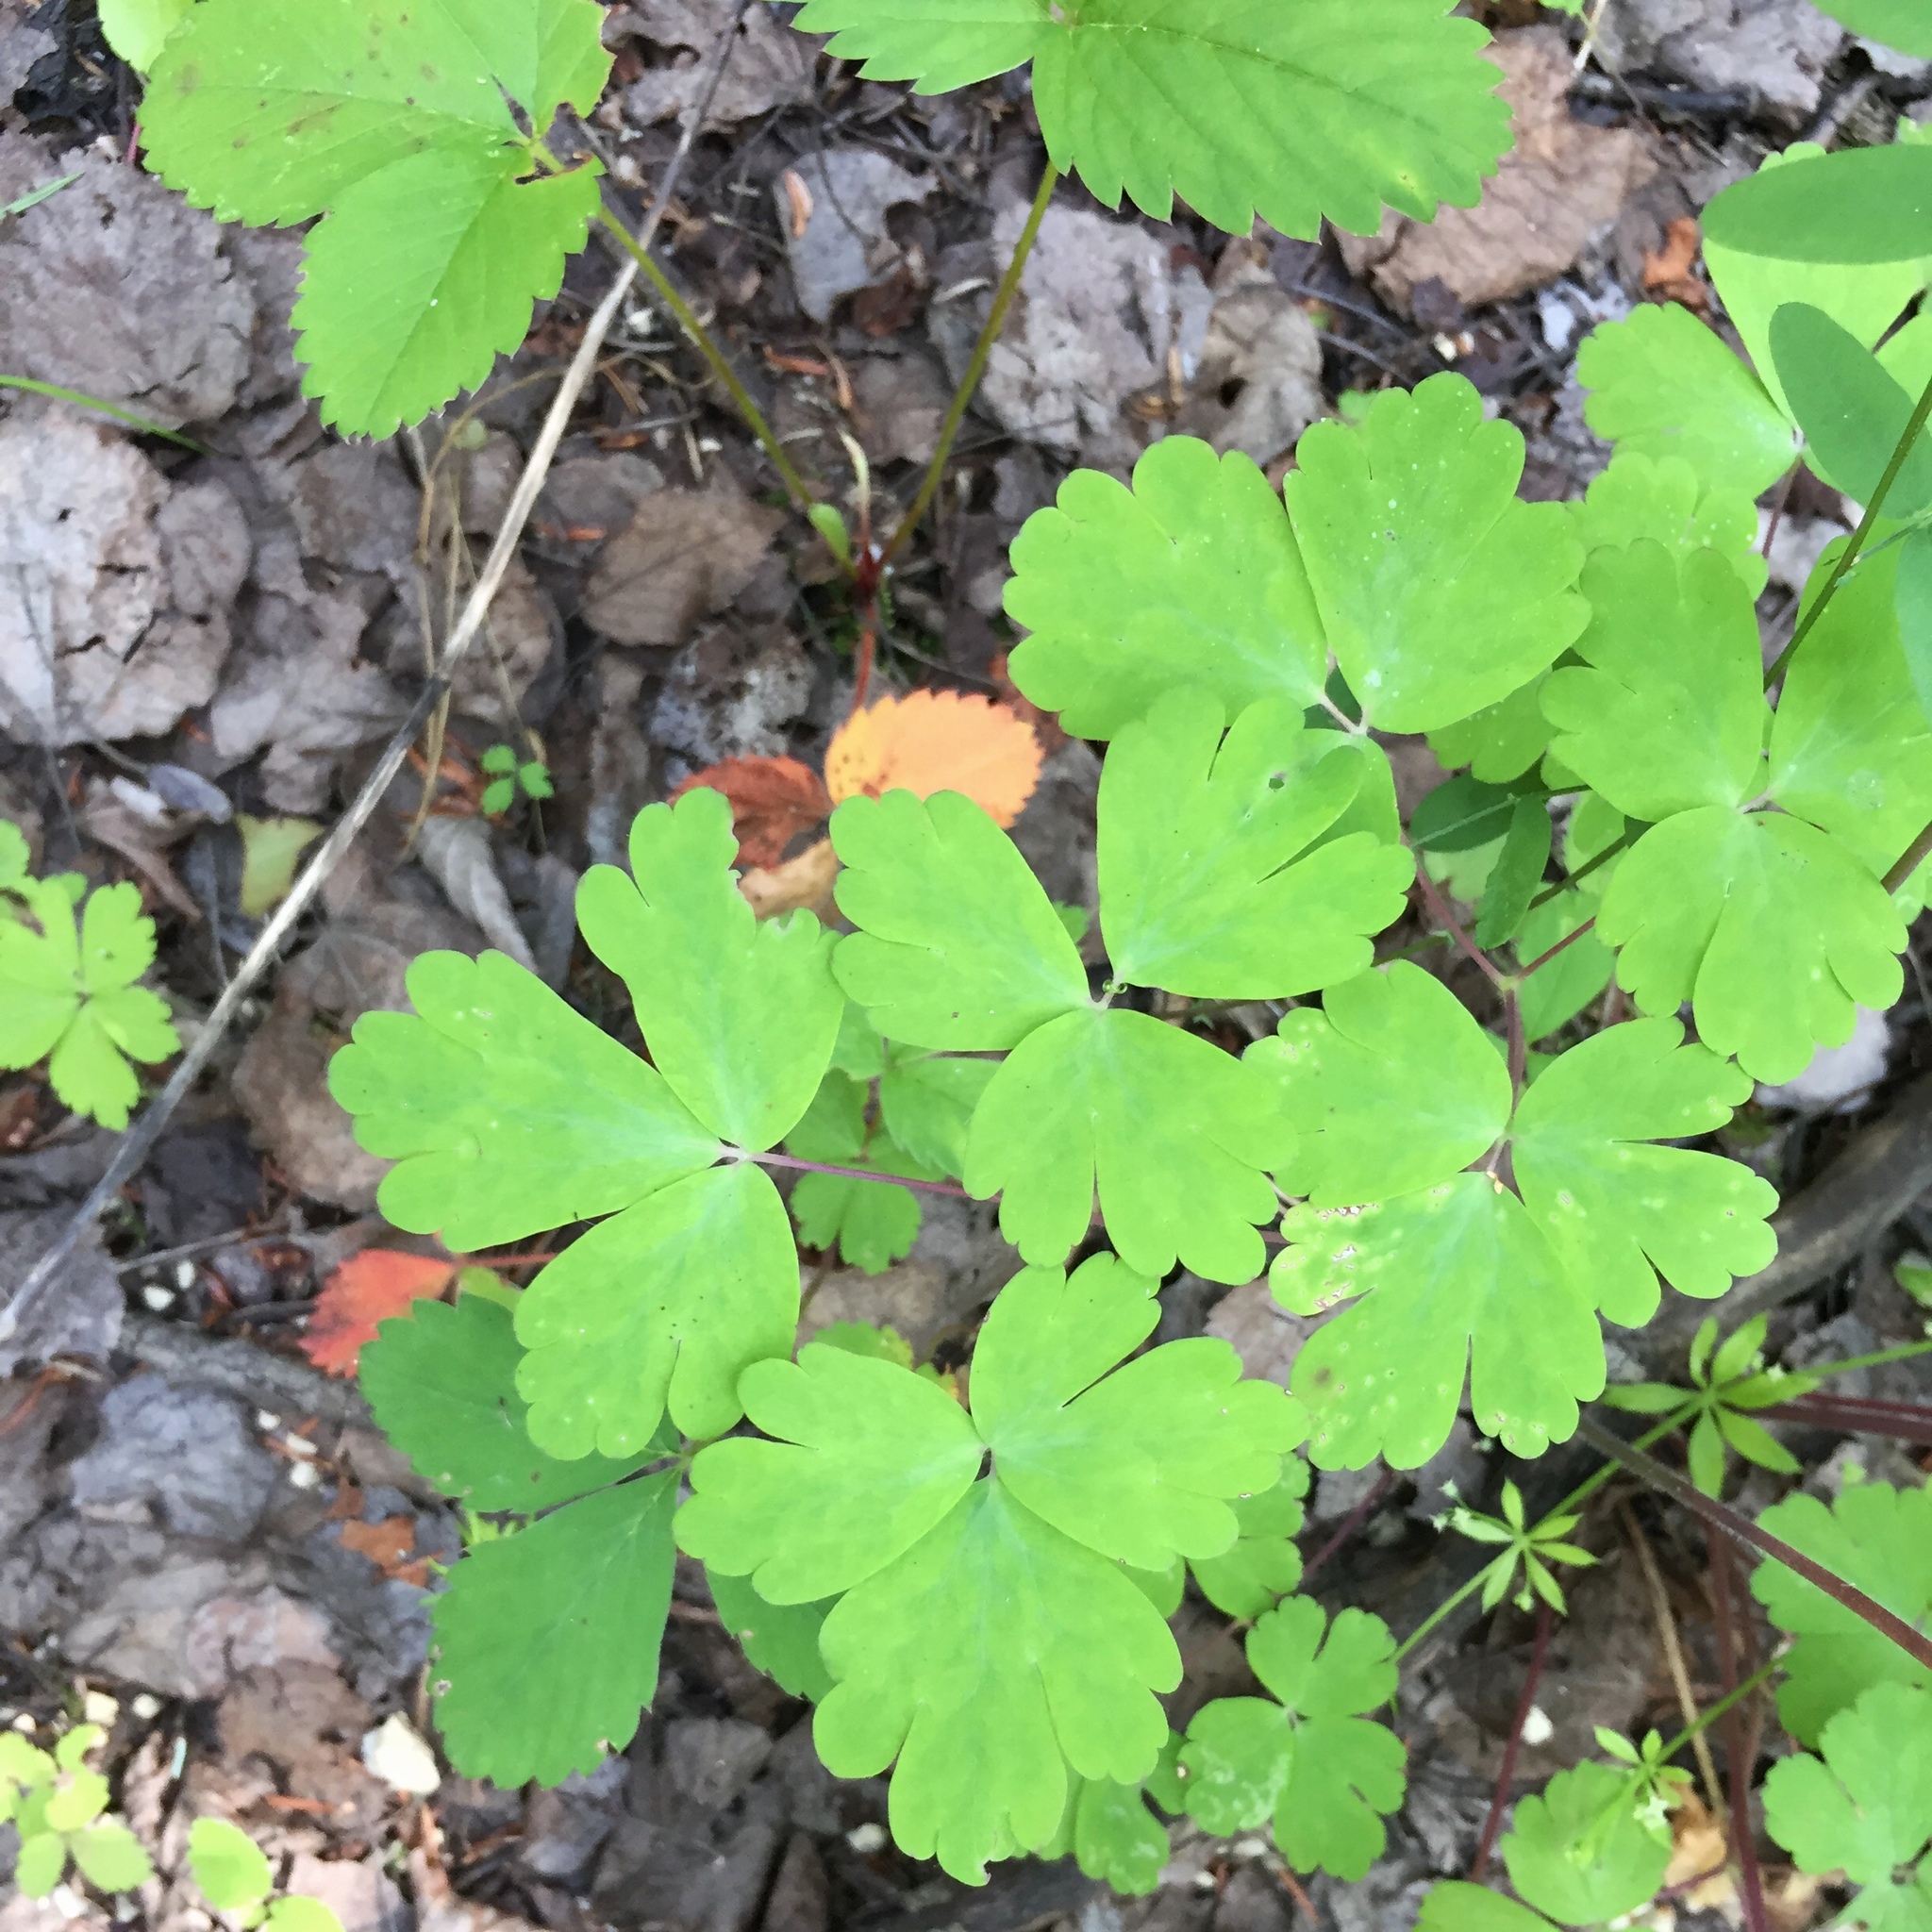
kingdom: Plantae
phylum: Tracheophyta
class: Magnoliopsida
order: Ranunculales
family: Ranunculaceae
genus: Aquilegia
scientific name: Aquilegia canadensis
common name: American columbine
